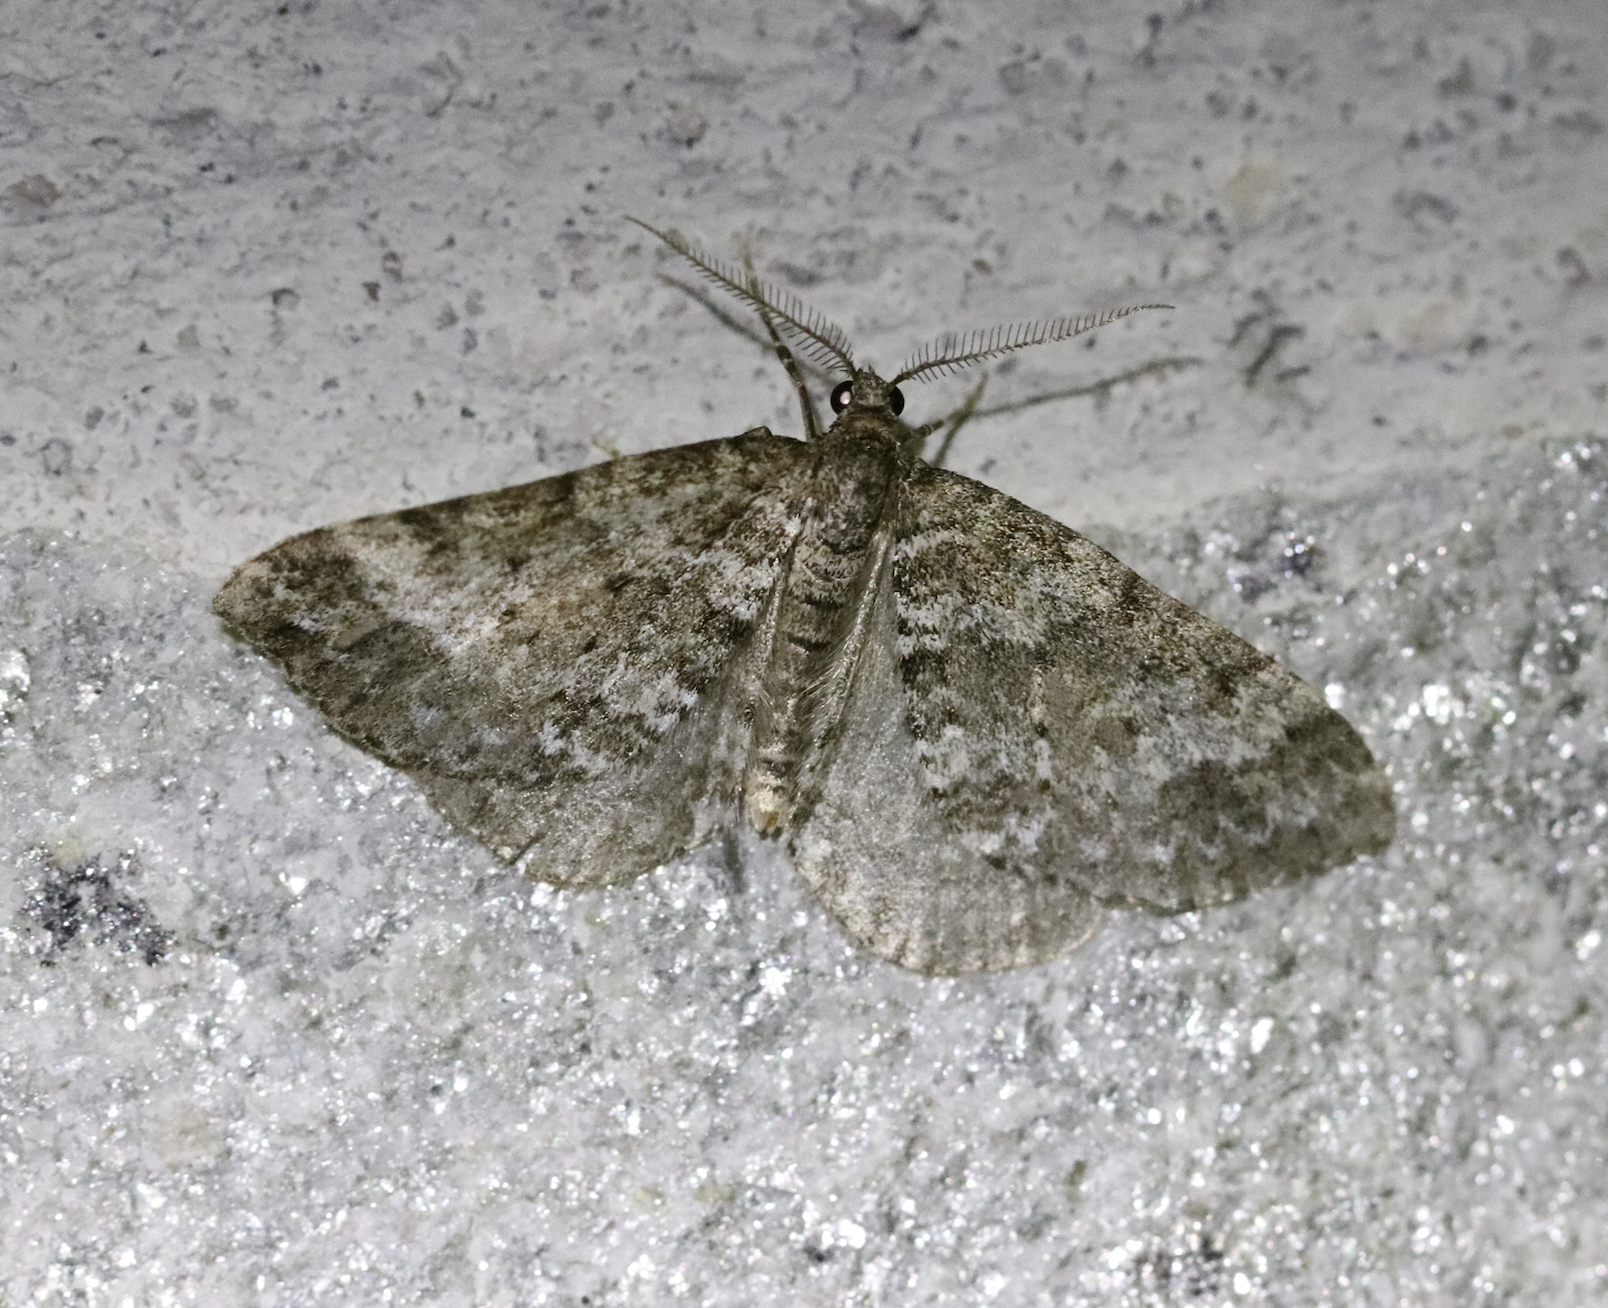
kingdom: Animalia
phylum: Arthropoda
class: Insecta
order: Lepidoptera
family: Geometridae
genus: Perizoma
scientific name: Perizoma didymata
